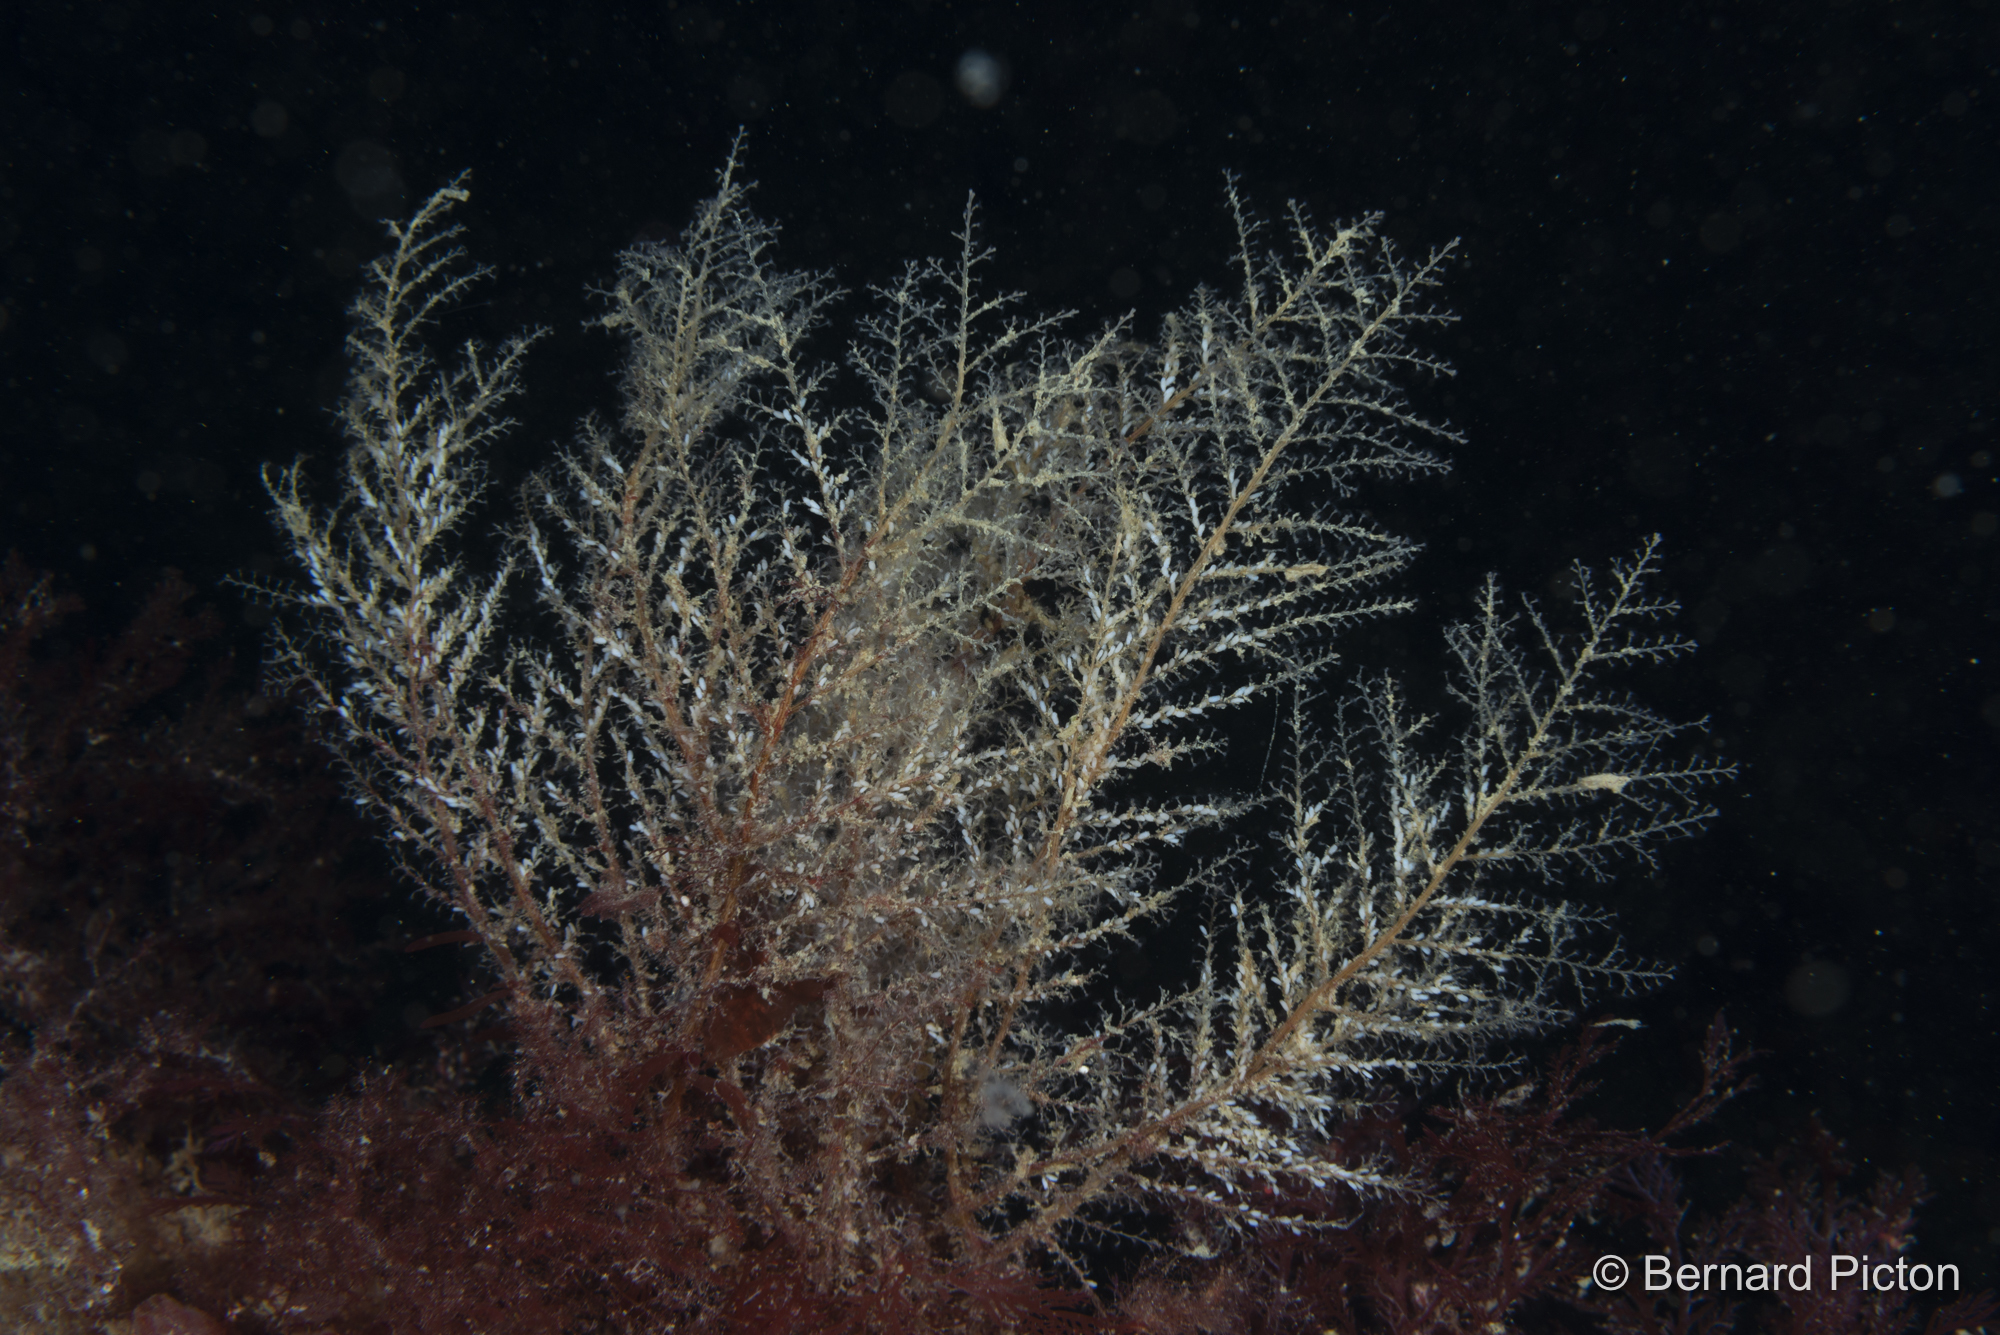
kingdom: Animalia
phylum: Cnidaria
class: Hydrozoa
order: Leptothecata
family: Haleciidae
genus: Halecium
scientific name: Halecium halecinum
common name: Herringbone hydroid
